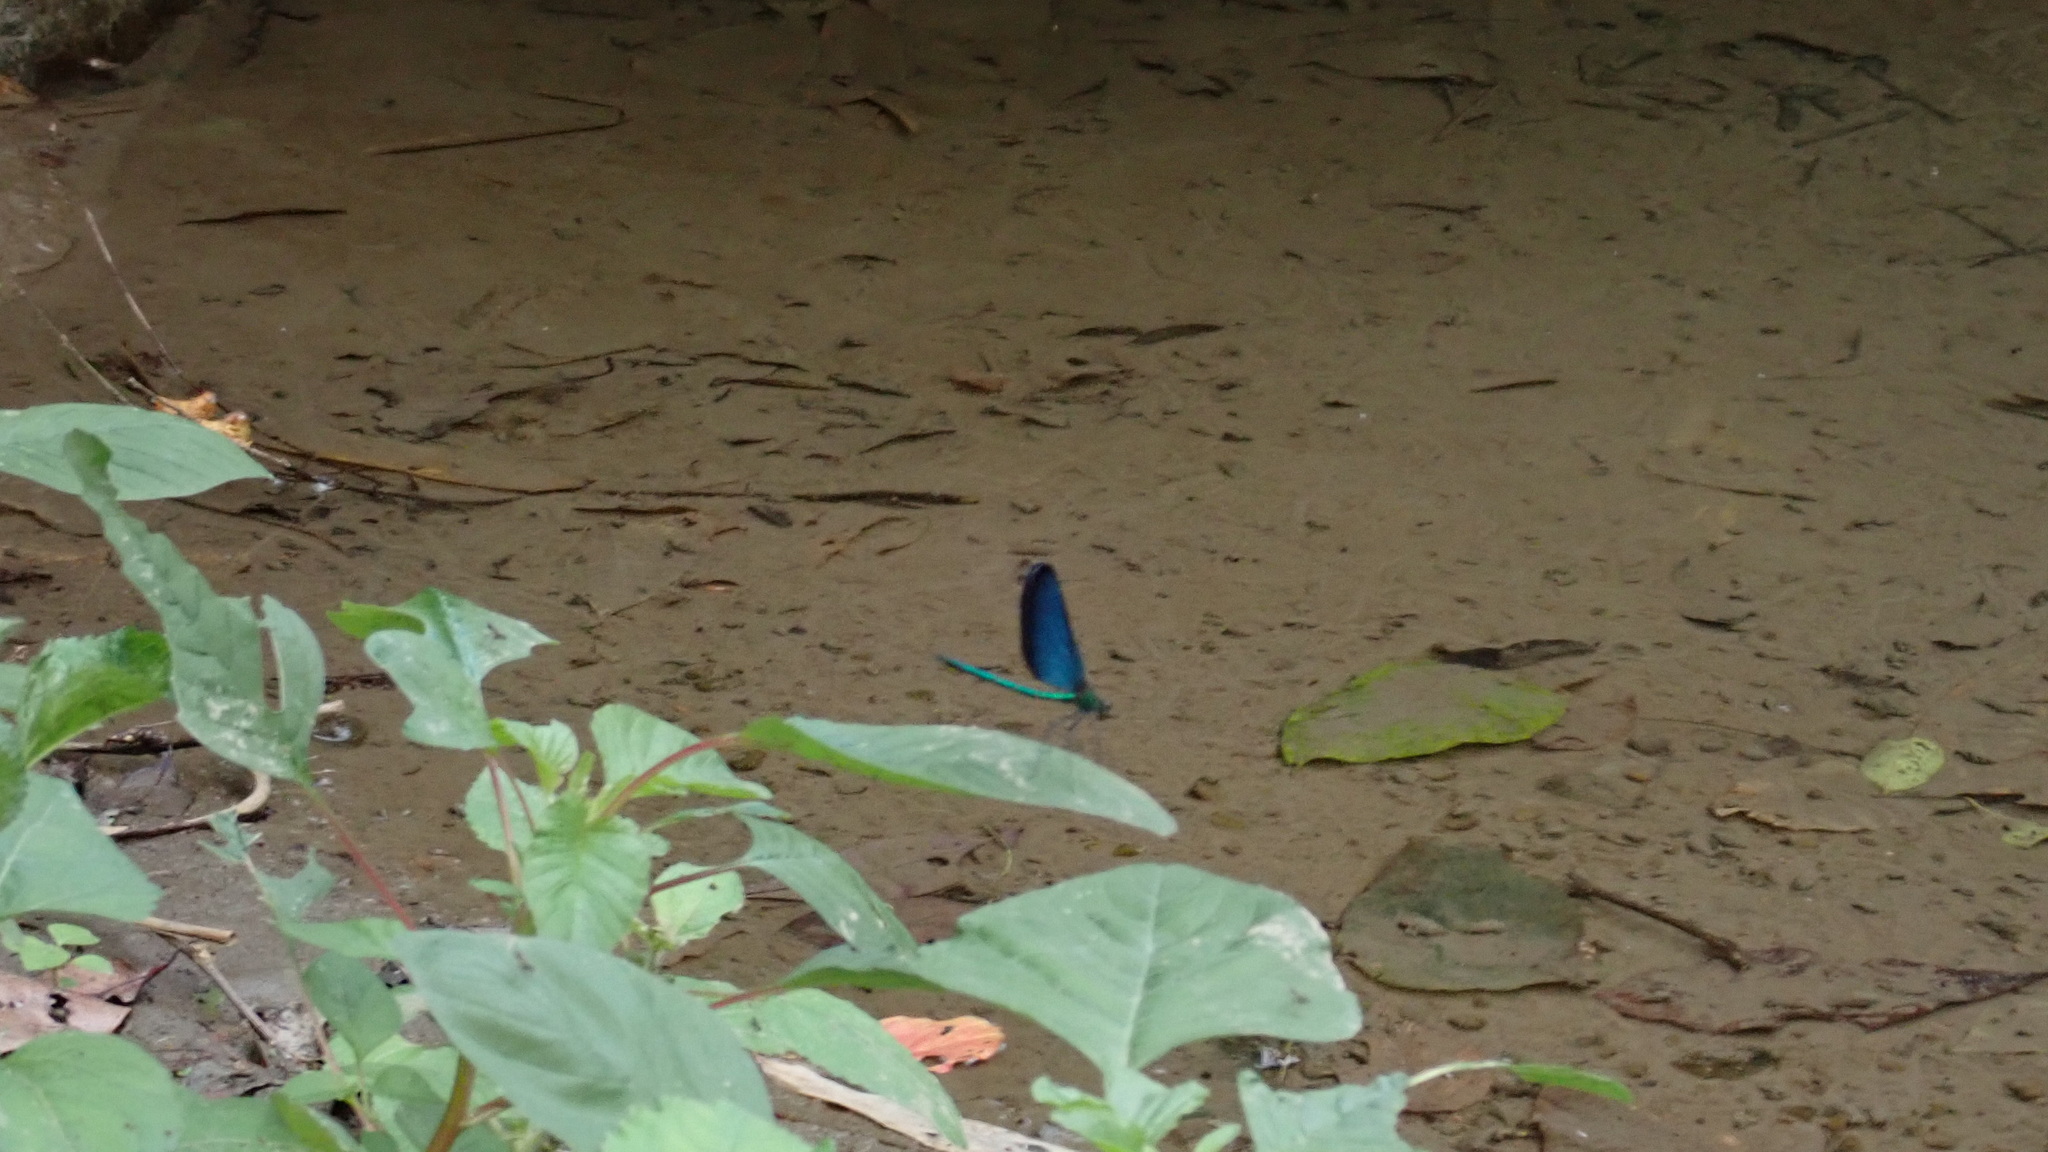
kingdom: Animalia
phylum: Arthropoda
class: Insecta
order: Odonata
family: Calopterygidae
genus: Matrona
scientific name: Matrona cyanoptera
